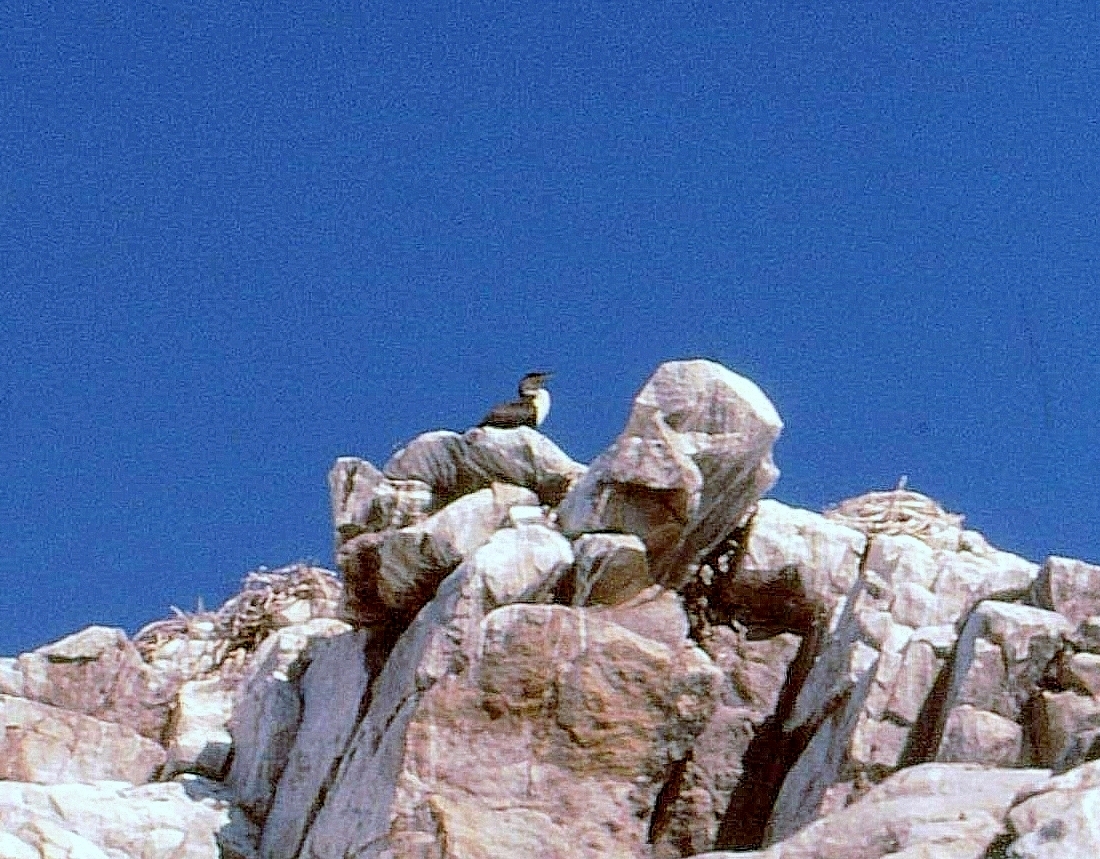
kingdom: Animalia
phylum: Chordata
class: Aves
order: Suliformes
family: Phalacrocoracidae
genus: Phalacrocorax
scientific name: Phalacrocorax carbo
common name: Great cormorant
